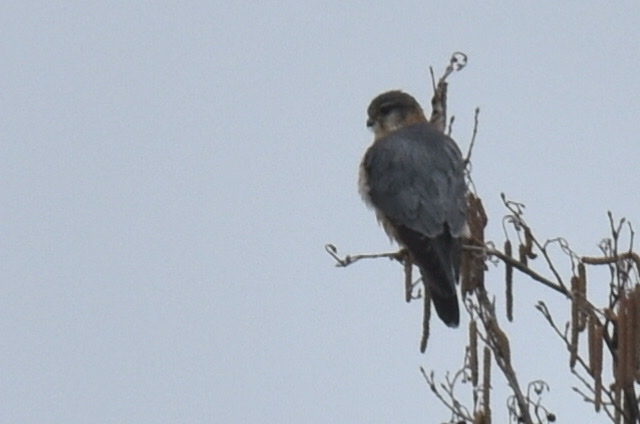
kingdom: Animalia
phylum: Chordata
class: Aves
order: Falconiformes
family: Falconidae
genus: Falco
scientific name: Falco columbarius
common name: Merlin
